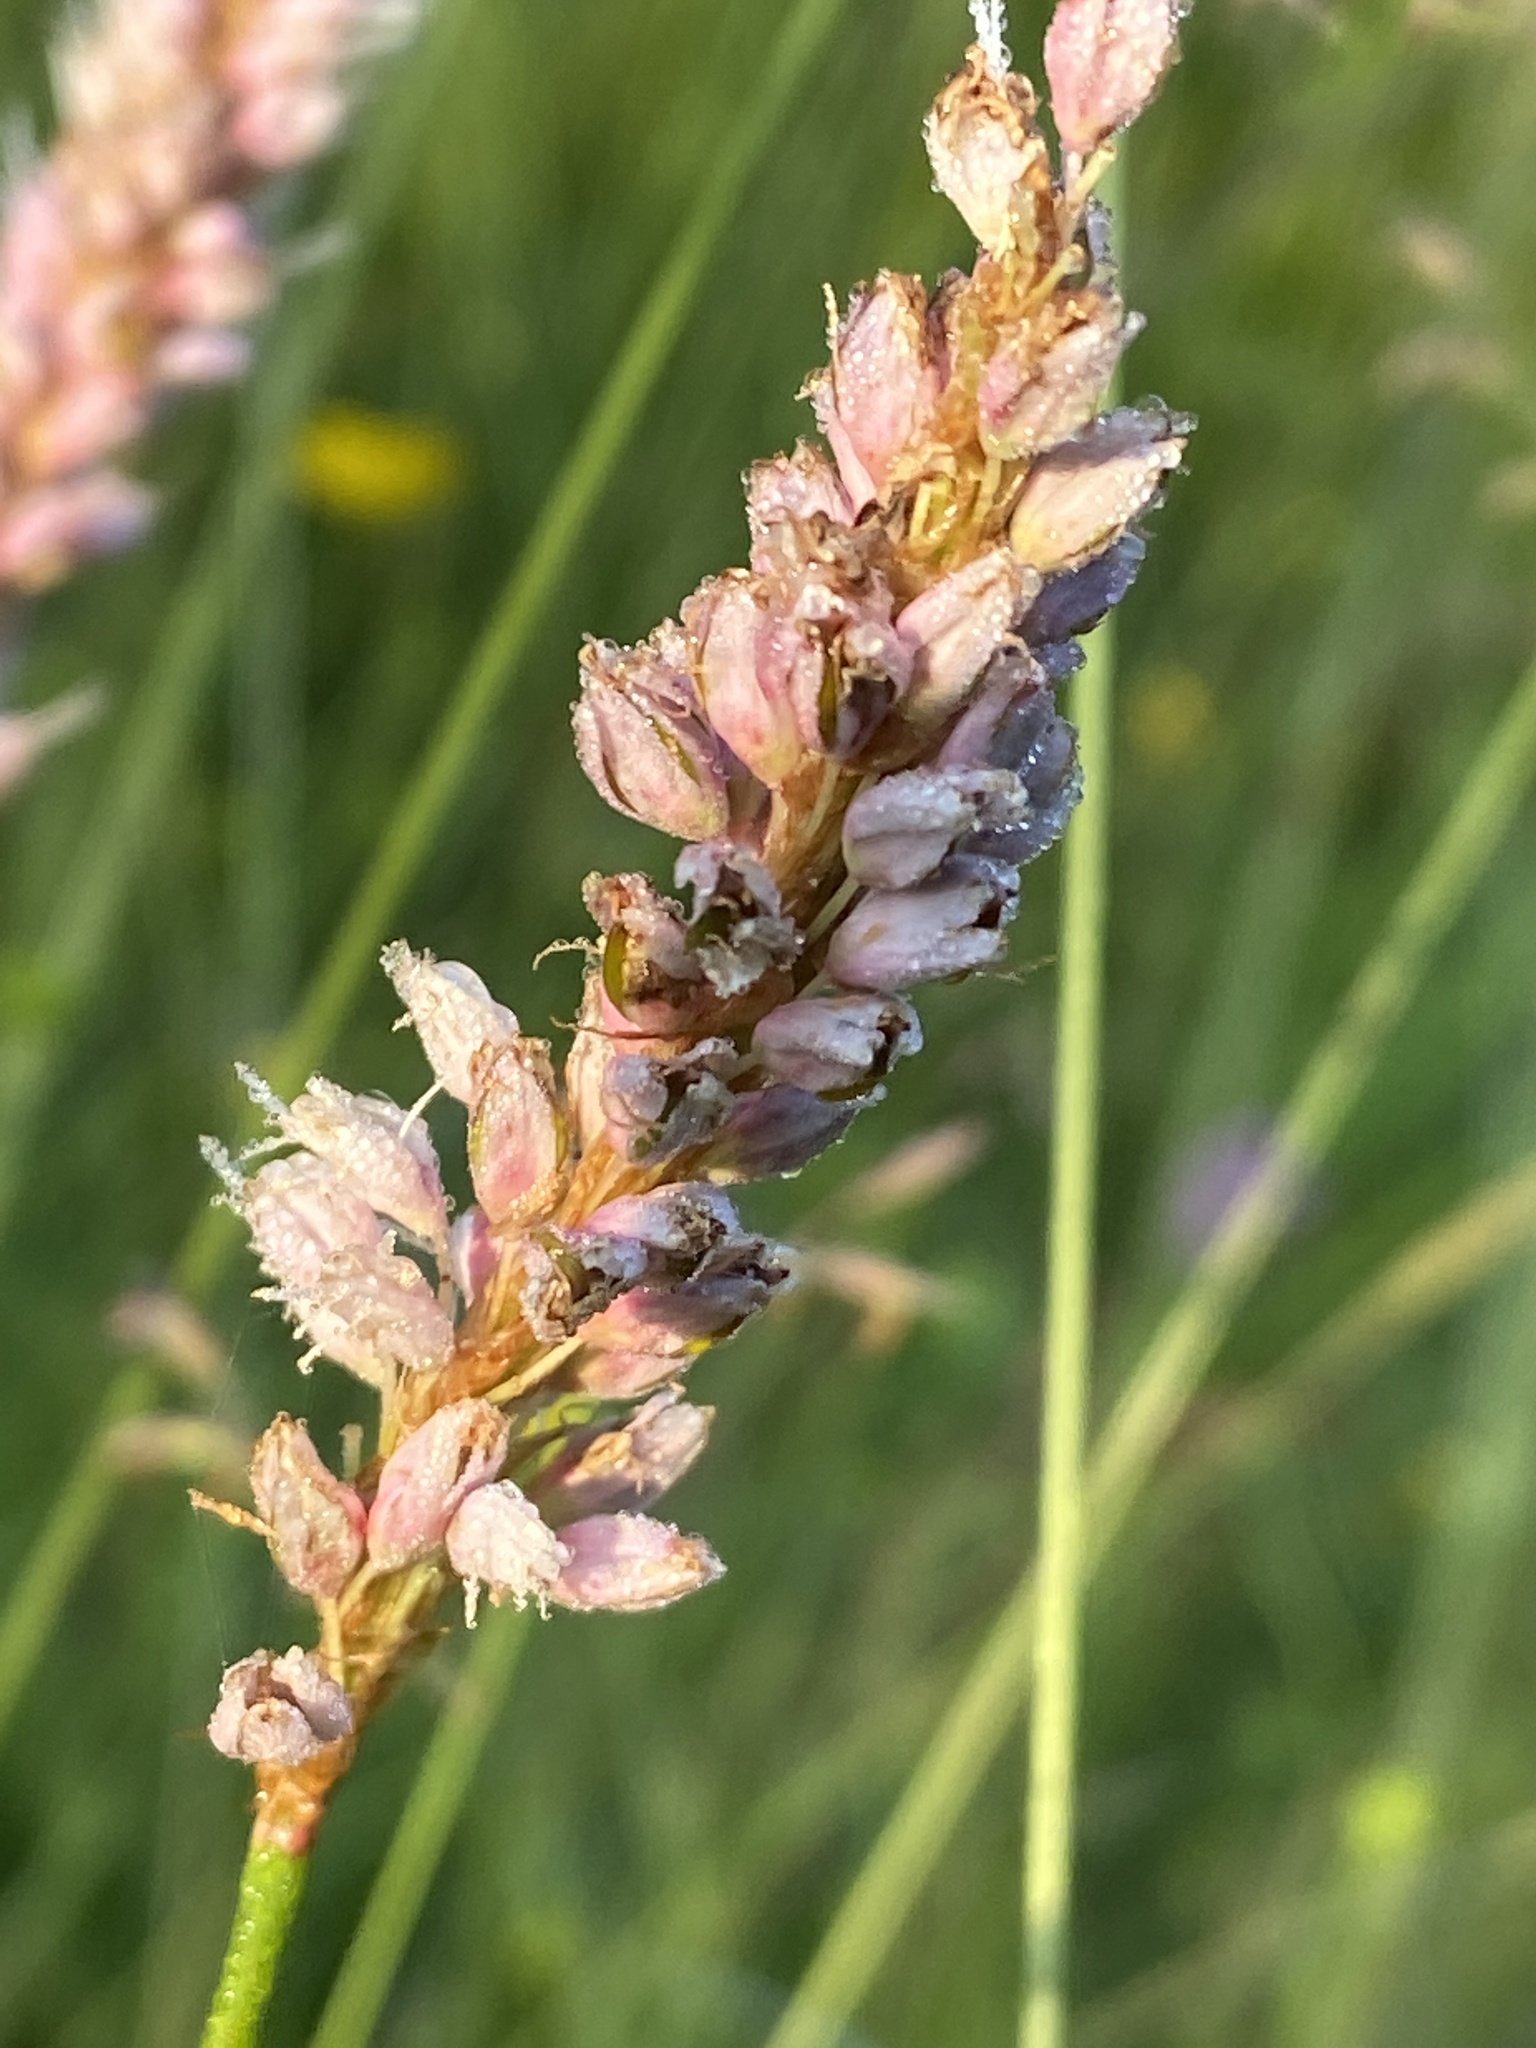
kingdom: Plantae
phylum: Tracheophyta
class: Magnoliopsida
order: Caryophyllales
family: Polygonaceae
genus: Bistorta
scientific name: Bistorta officinalis
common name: Common bistort
